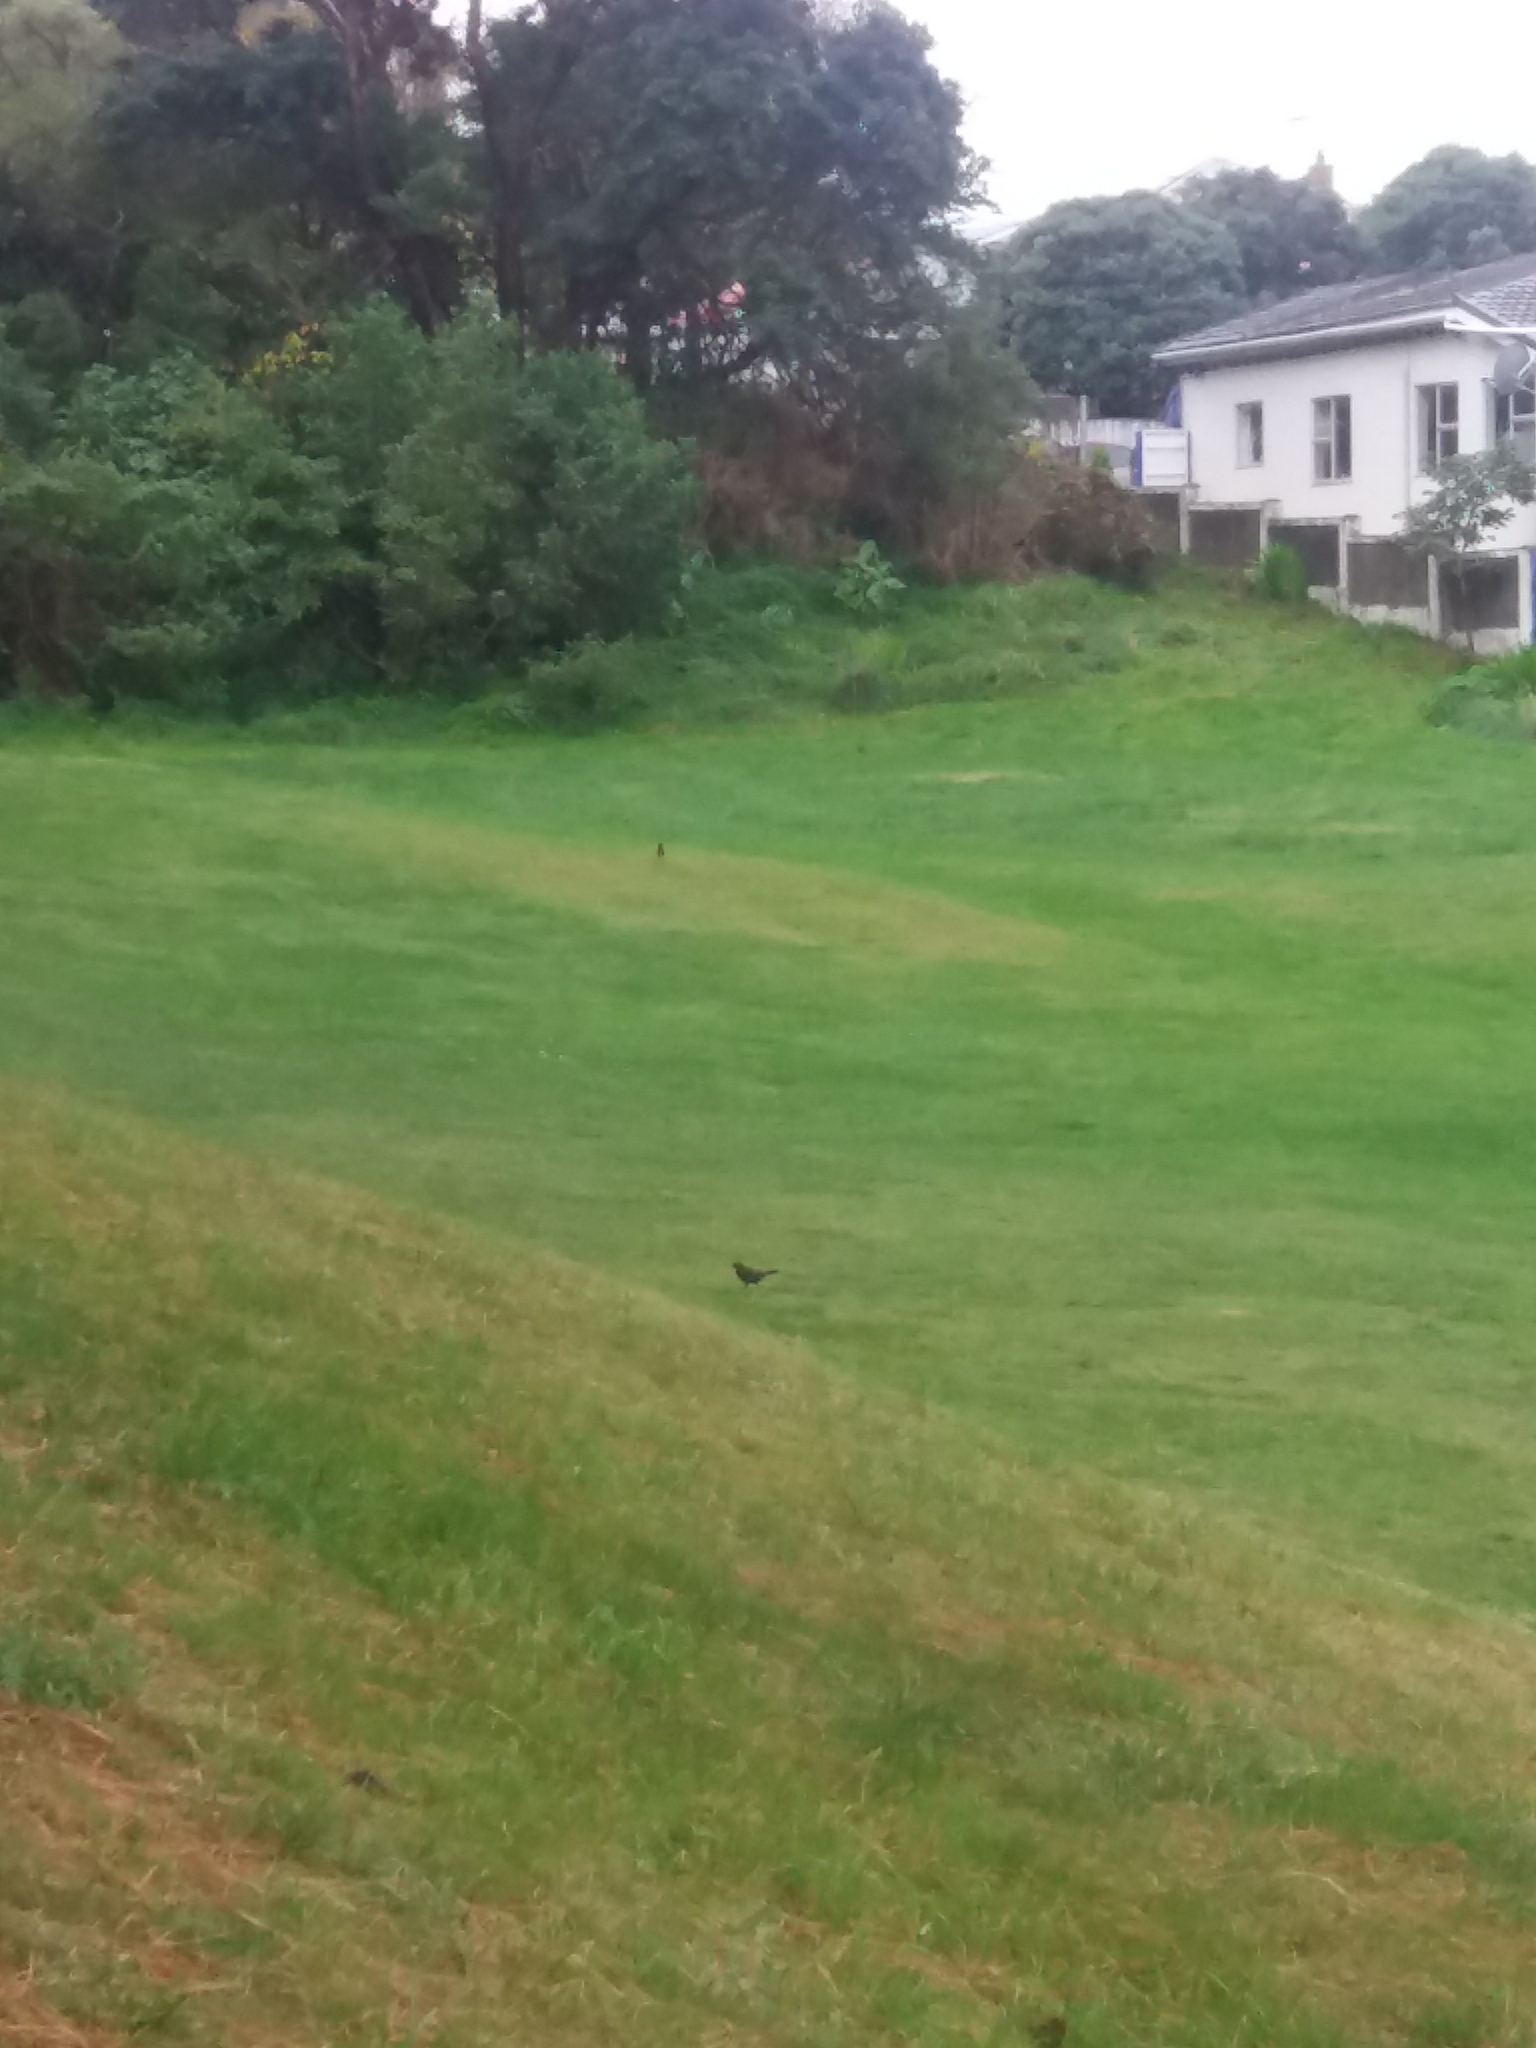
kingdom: Animalia
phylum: Chordata
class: Aves
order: Passeriformes
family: Turdidae
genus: Turdus
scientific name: Turdus merula
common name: Common blackbird
